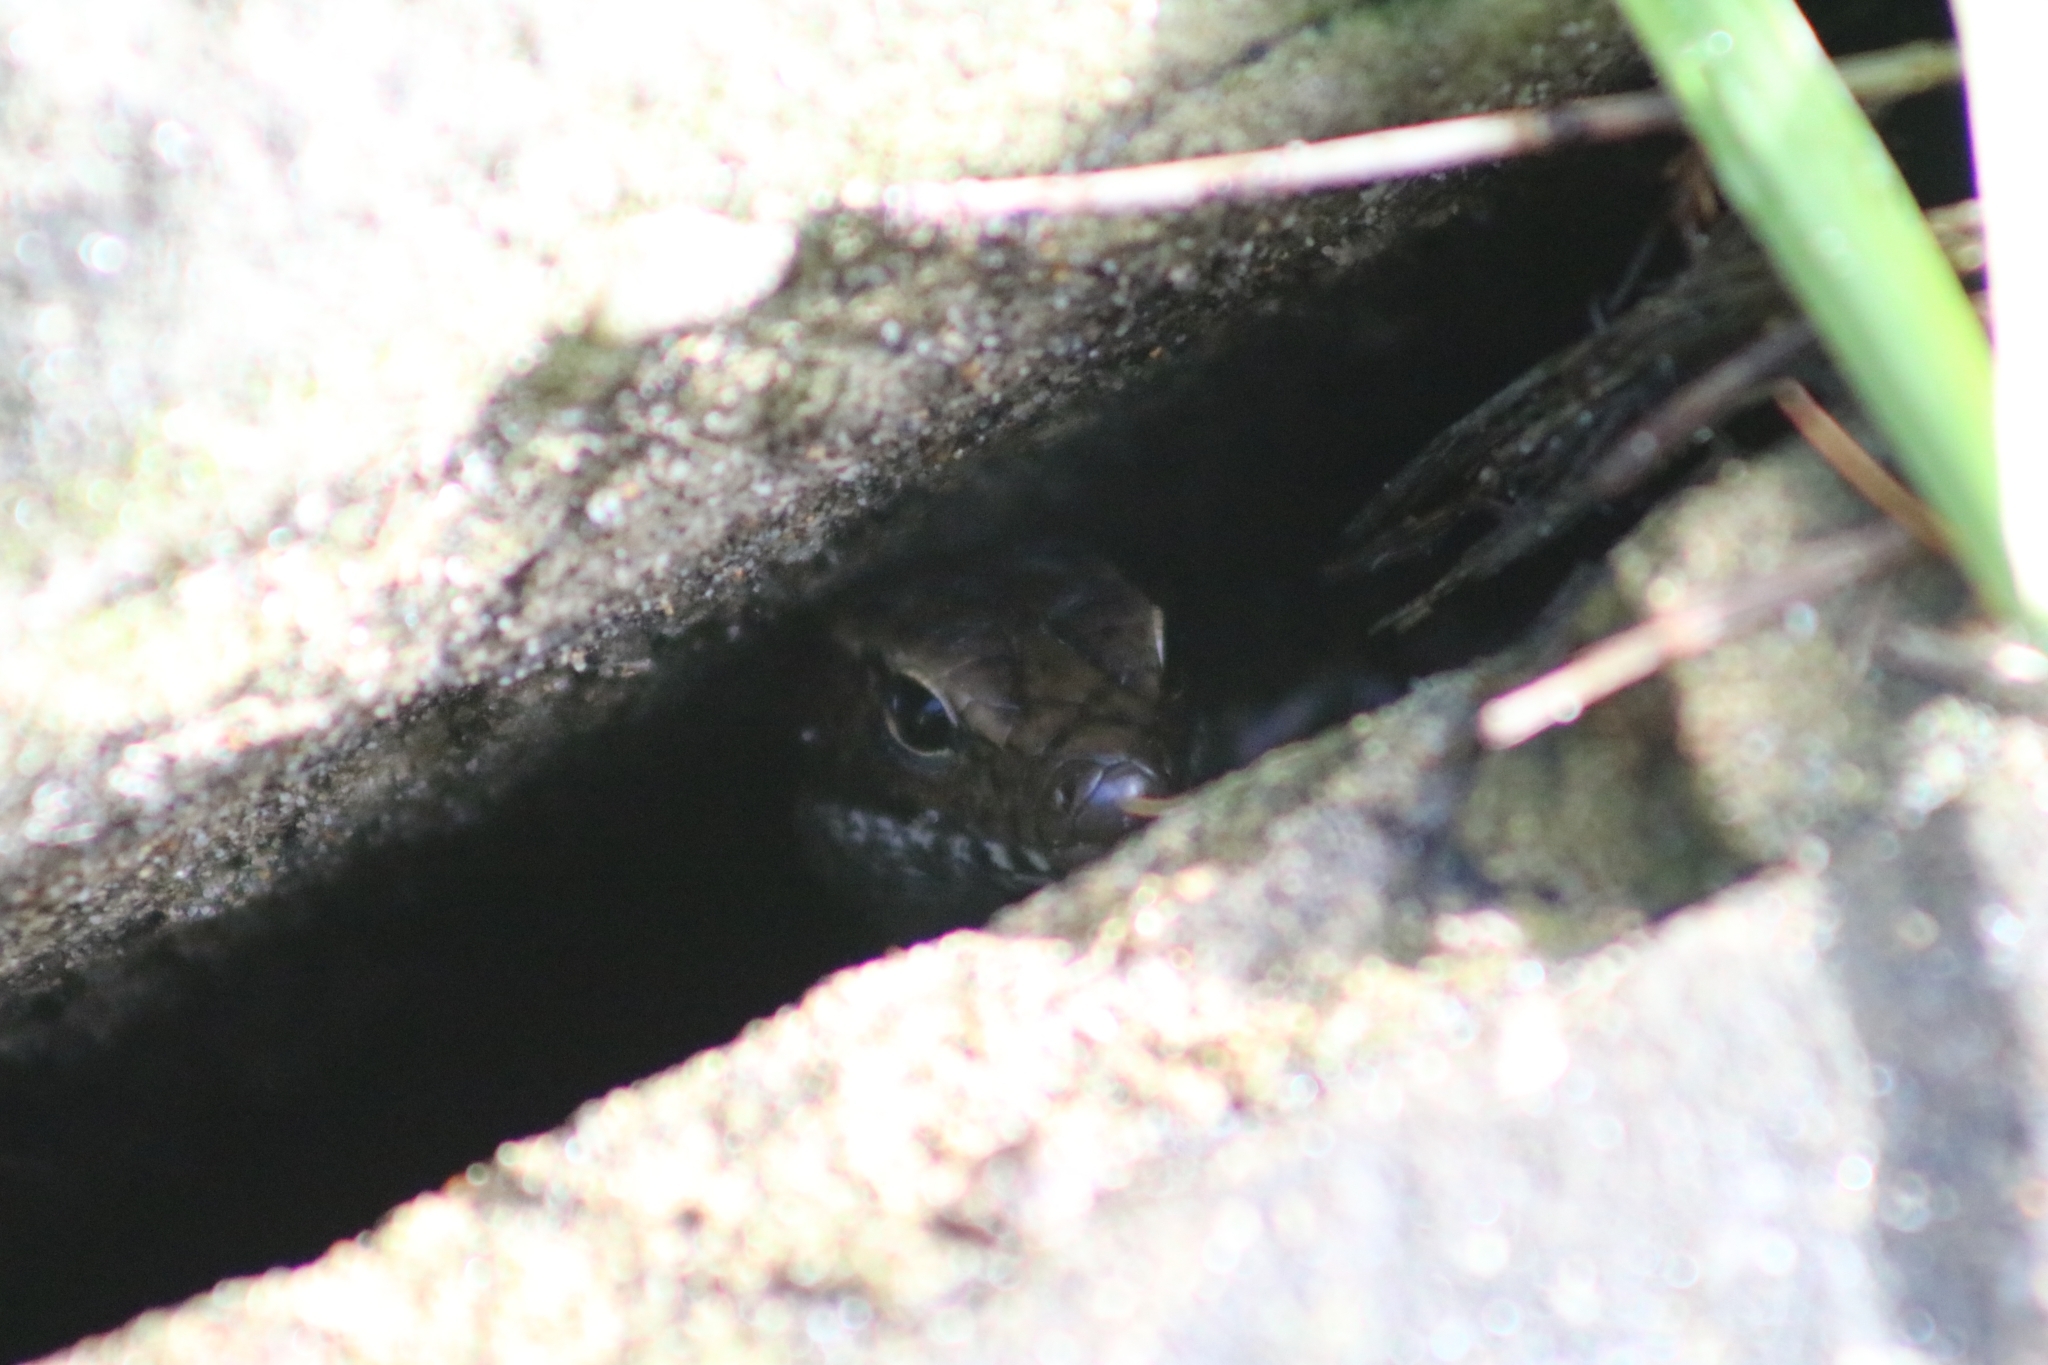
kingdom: Animalia
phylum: Chordata
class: Squamata
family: Scincidae
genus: Eulamprus
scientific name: Eulamprus quoyii
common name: Eastern water skink
